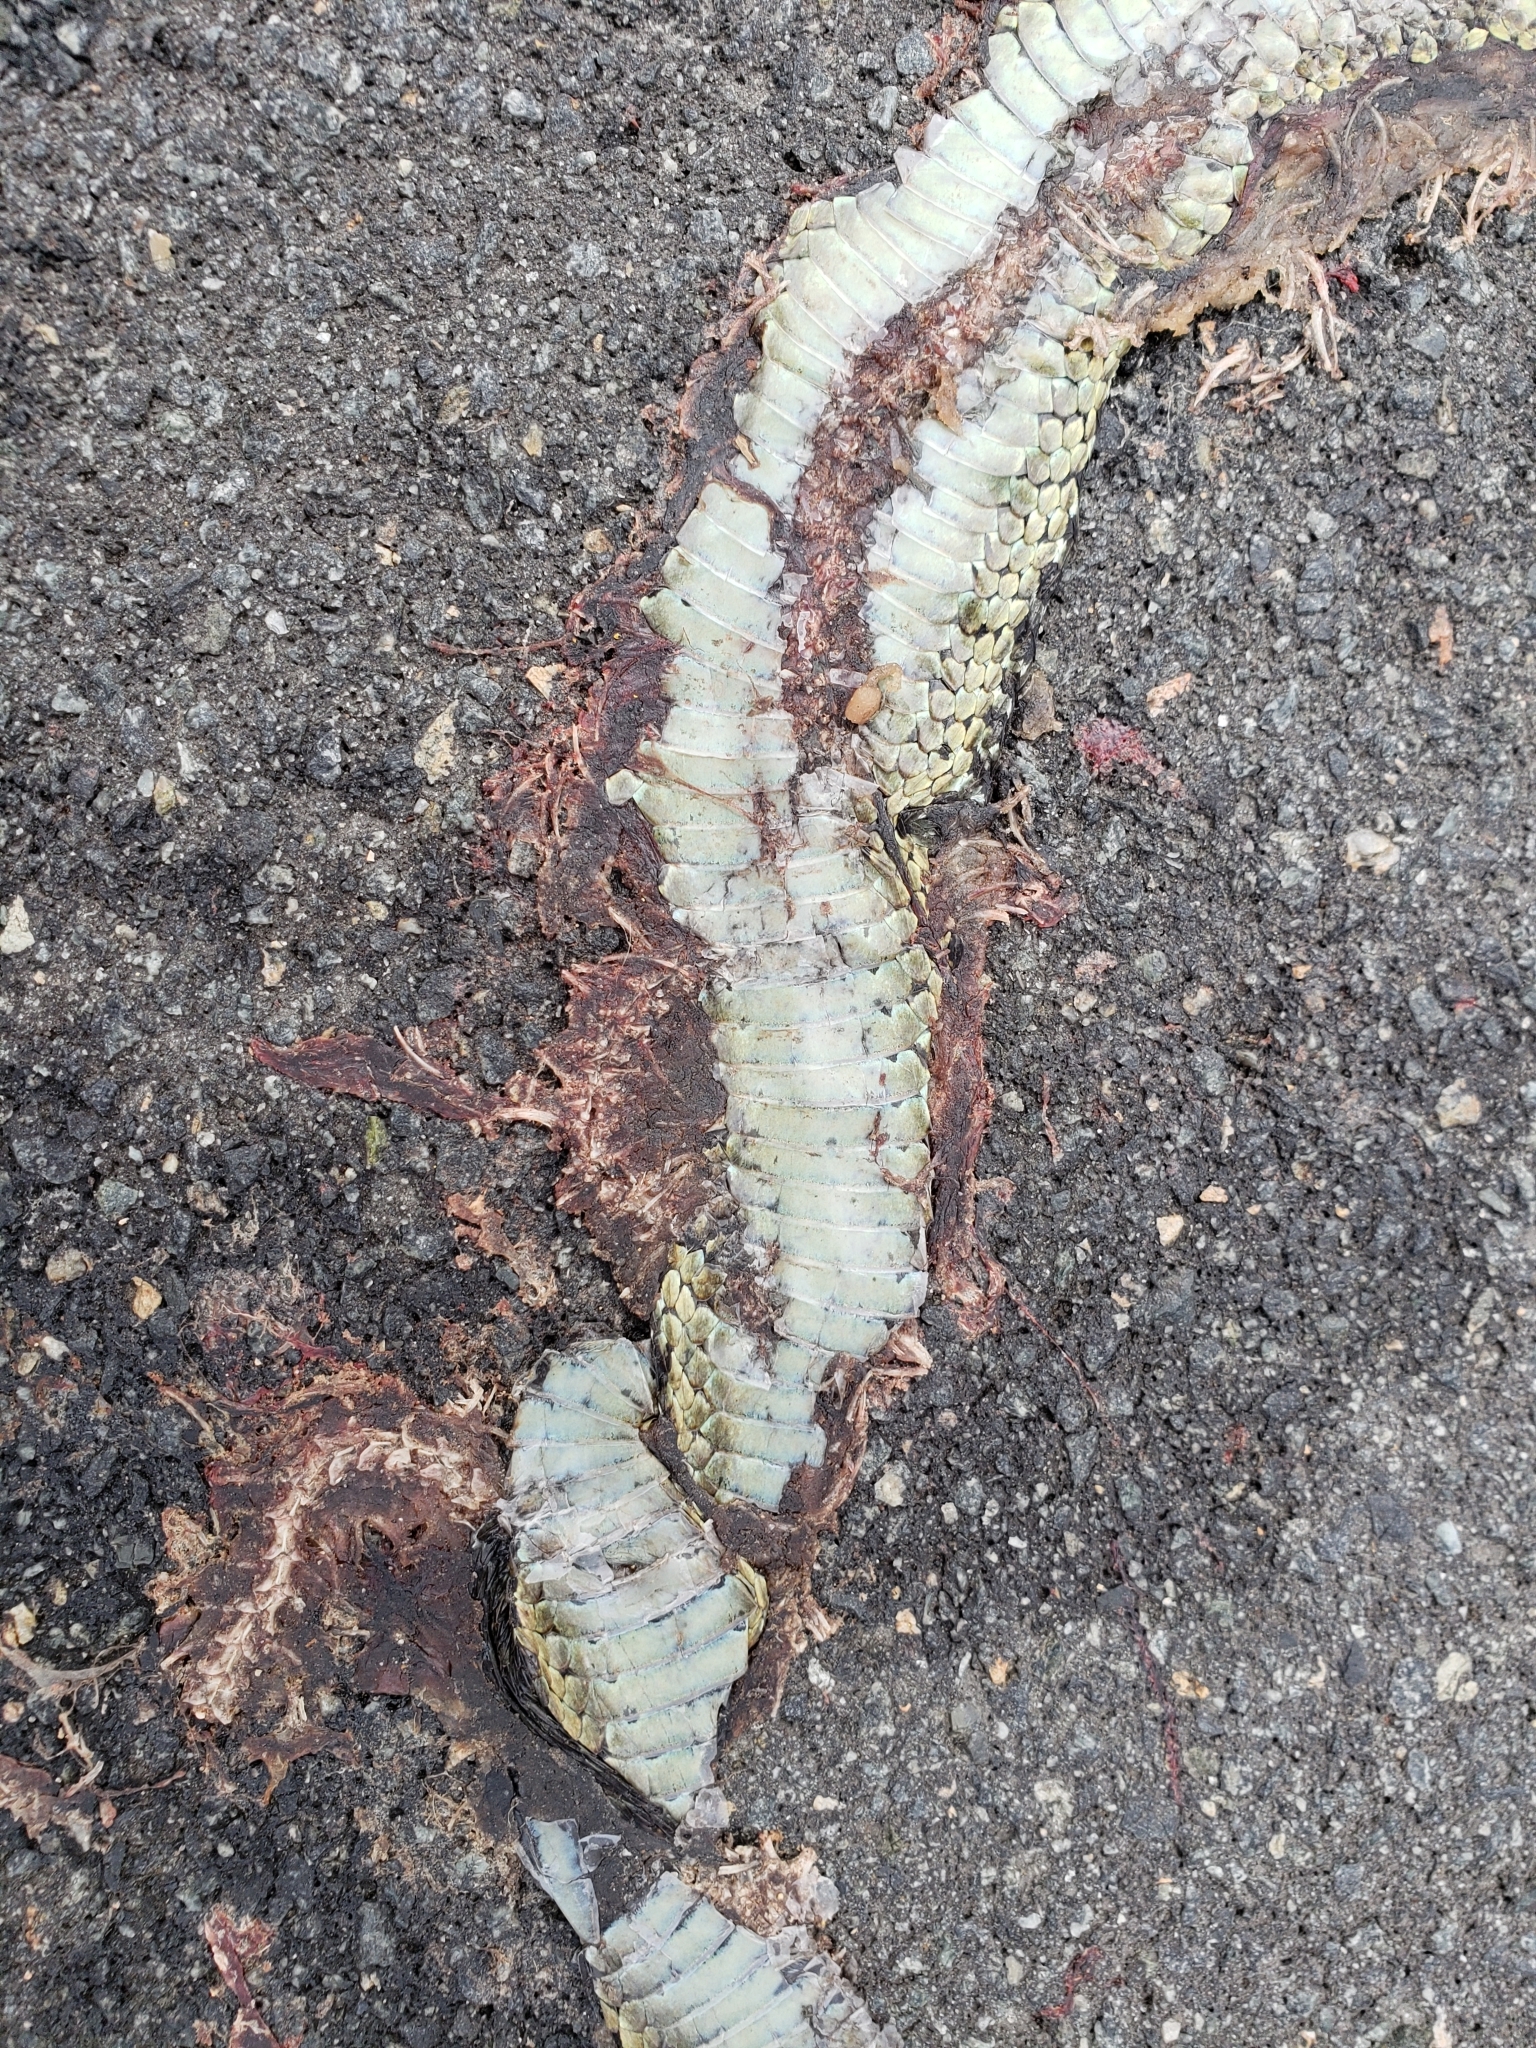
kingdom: Animalia
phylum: Chordata
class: Squamata
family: Colubridae
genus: Thamnophis
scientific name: Thamnophis sirtalis
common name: Common garter snake
